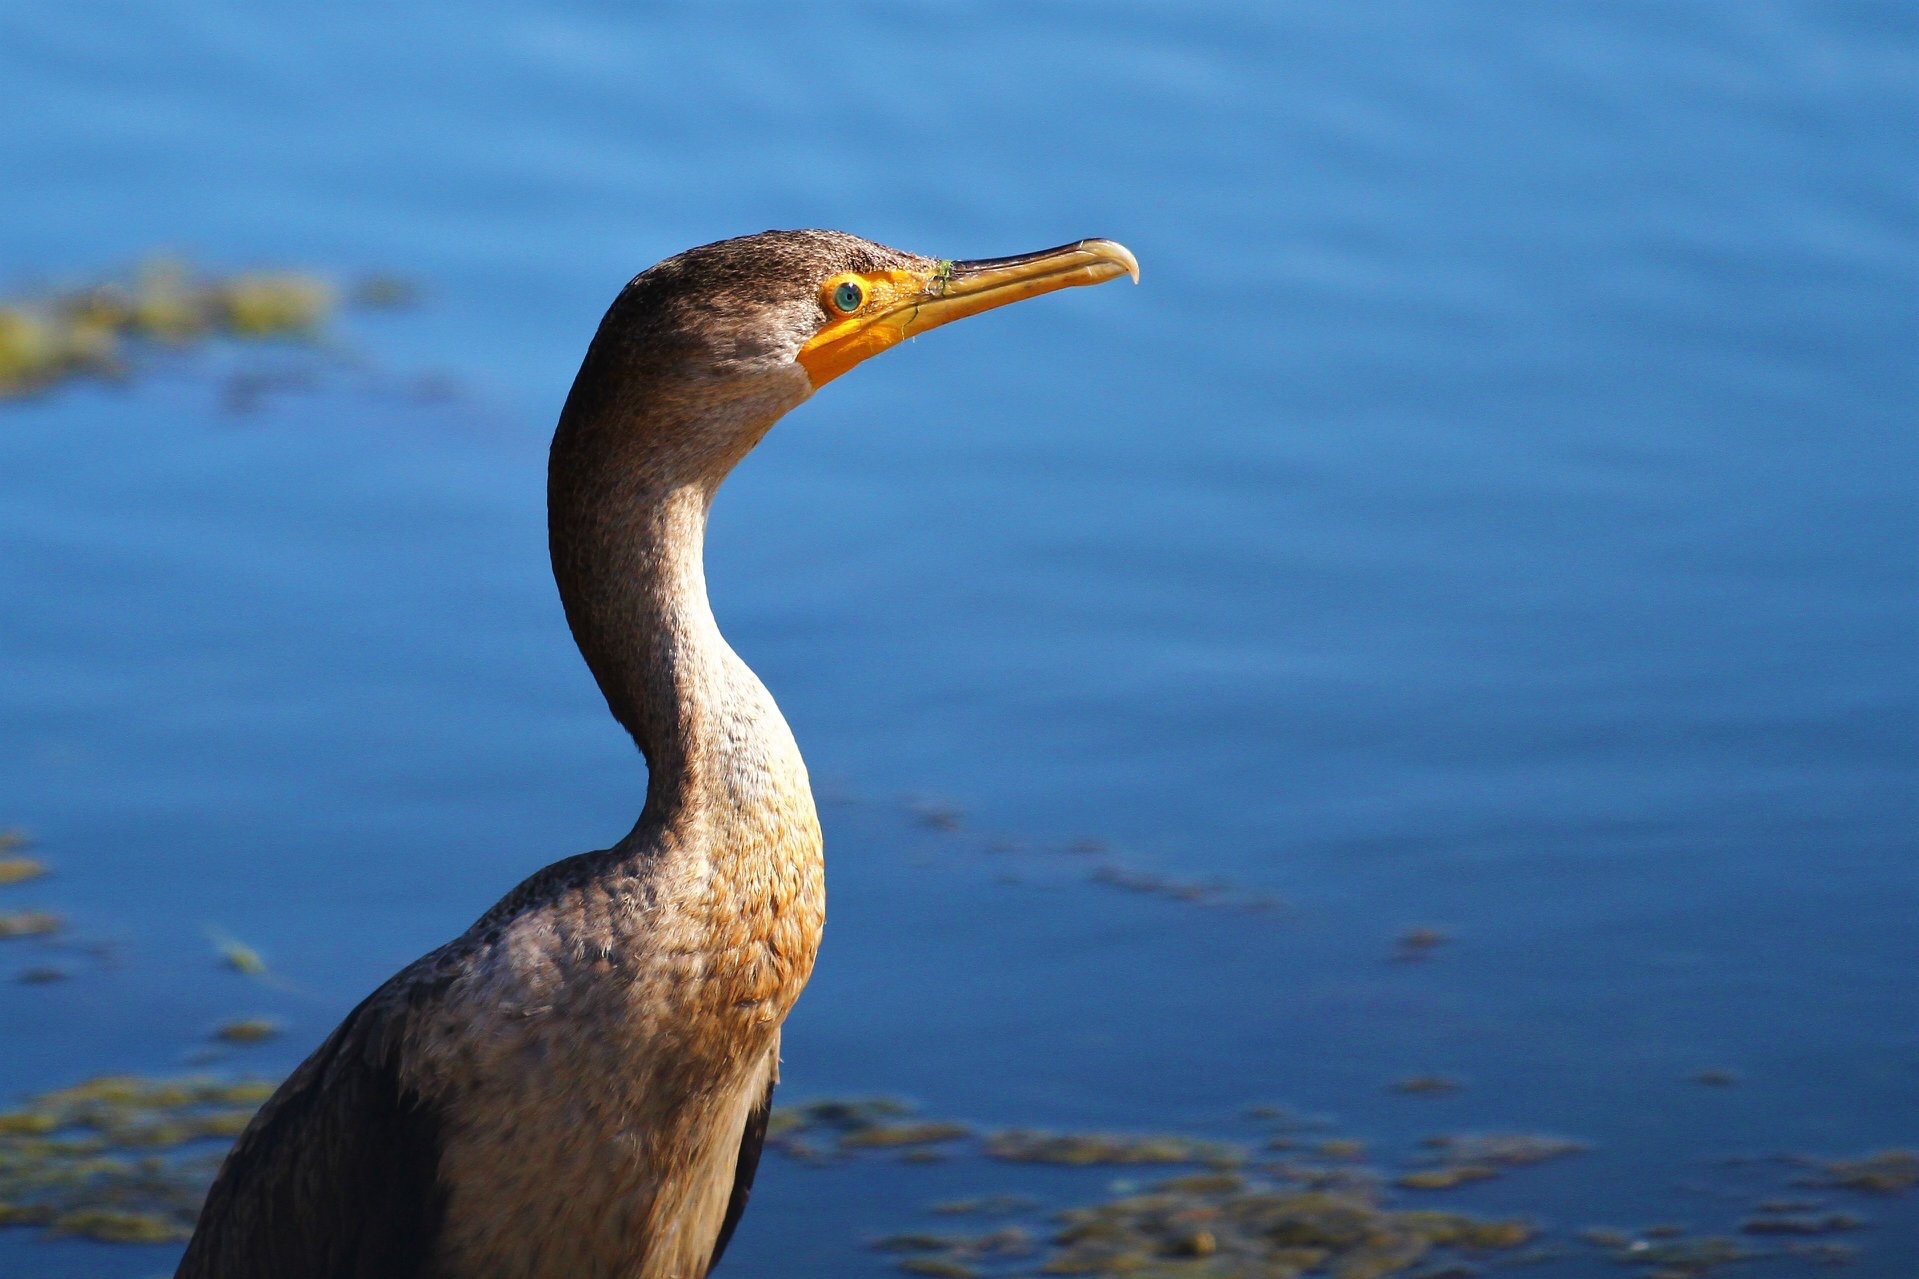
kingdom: Animalia
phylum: Chordata
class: Aves
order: Suliformes
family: Phalacrocoracidae
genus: Phalacrocorax
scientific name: Phalacrocorax auritus
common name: Double-crested cormorant
